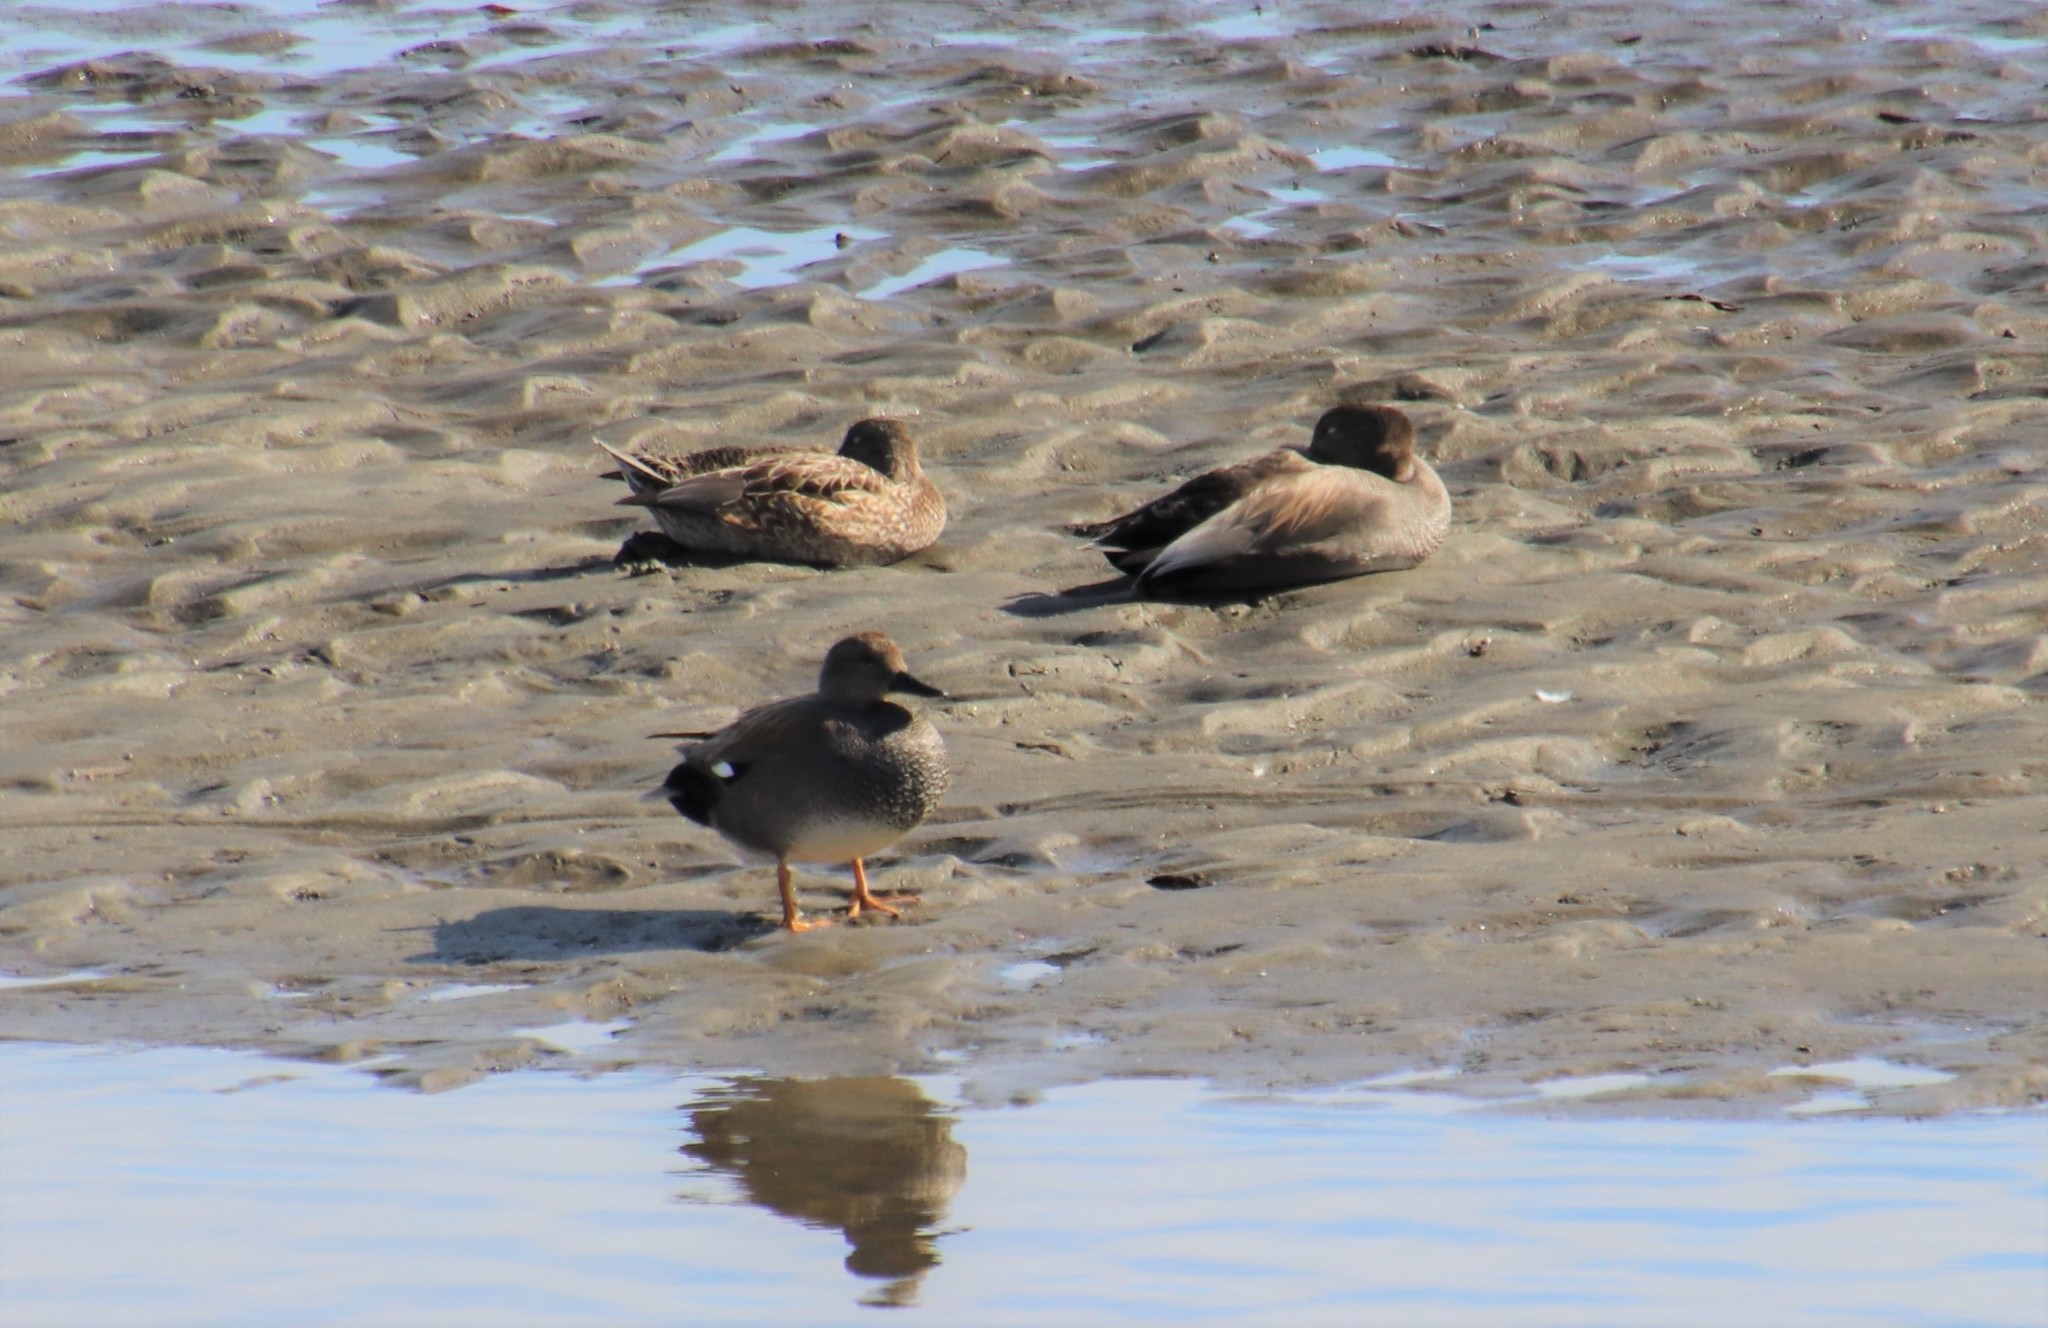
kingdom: Animalia
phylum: Chordata
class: Aves
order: Anseriformes
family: Anatidae
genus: Mareca
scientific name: Mareca strepera
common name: Gadwall
